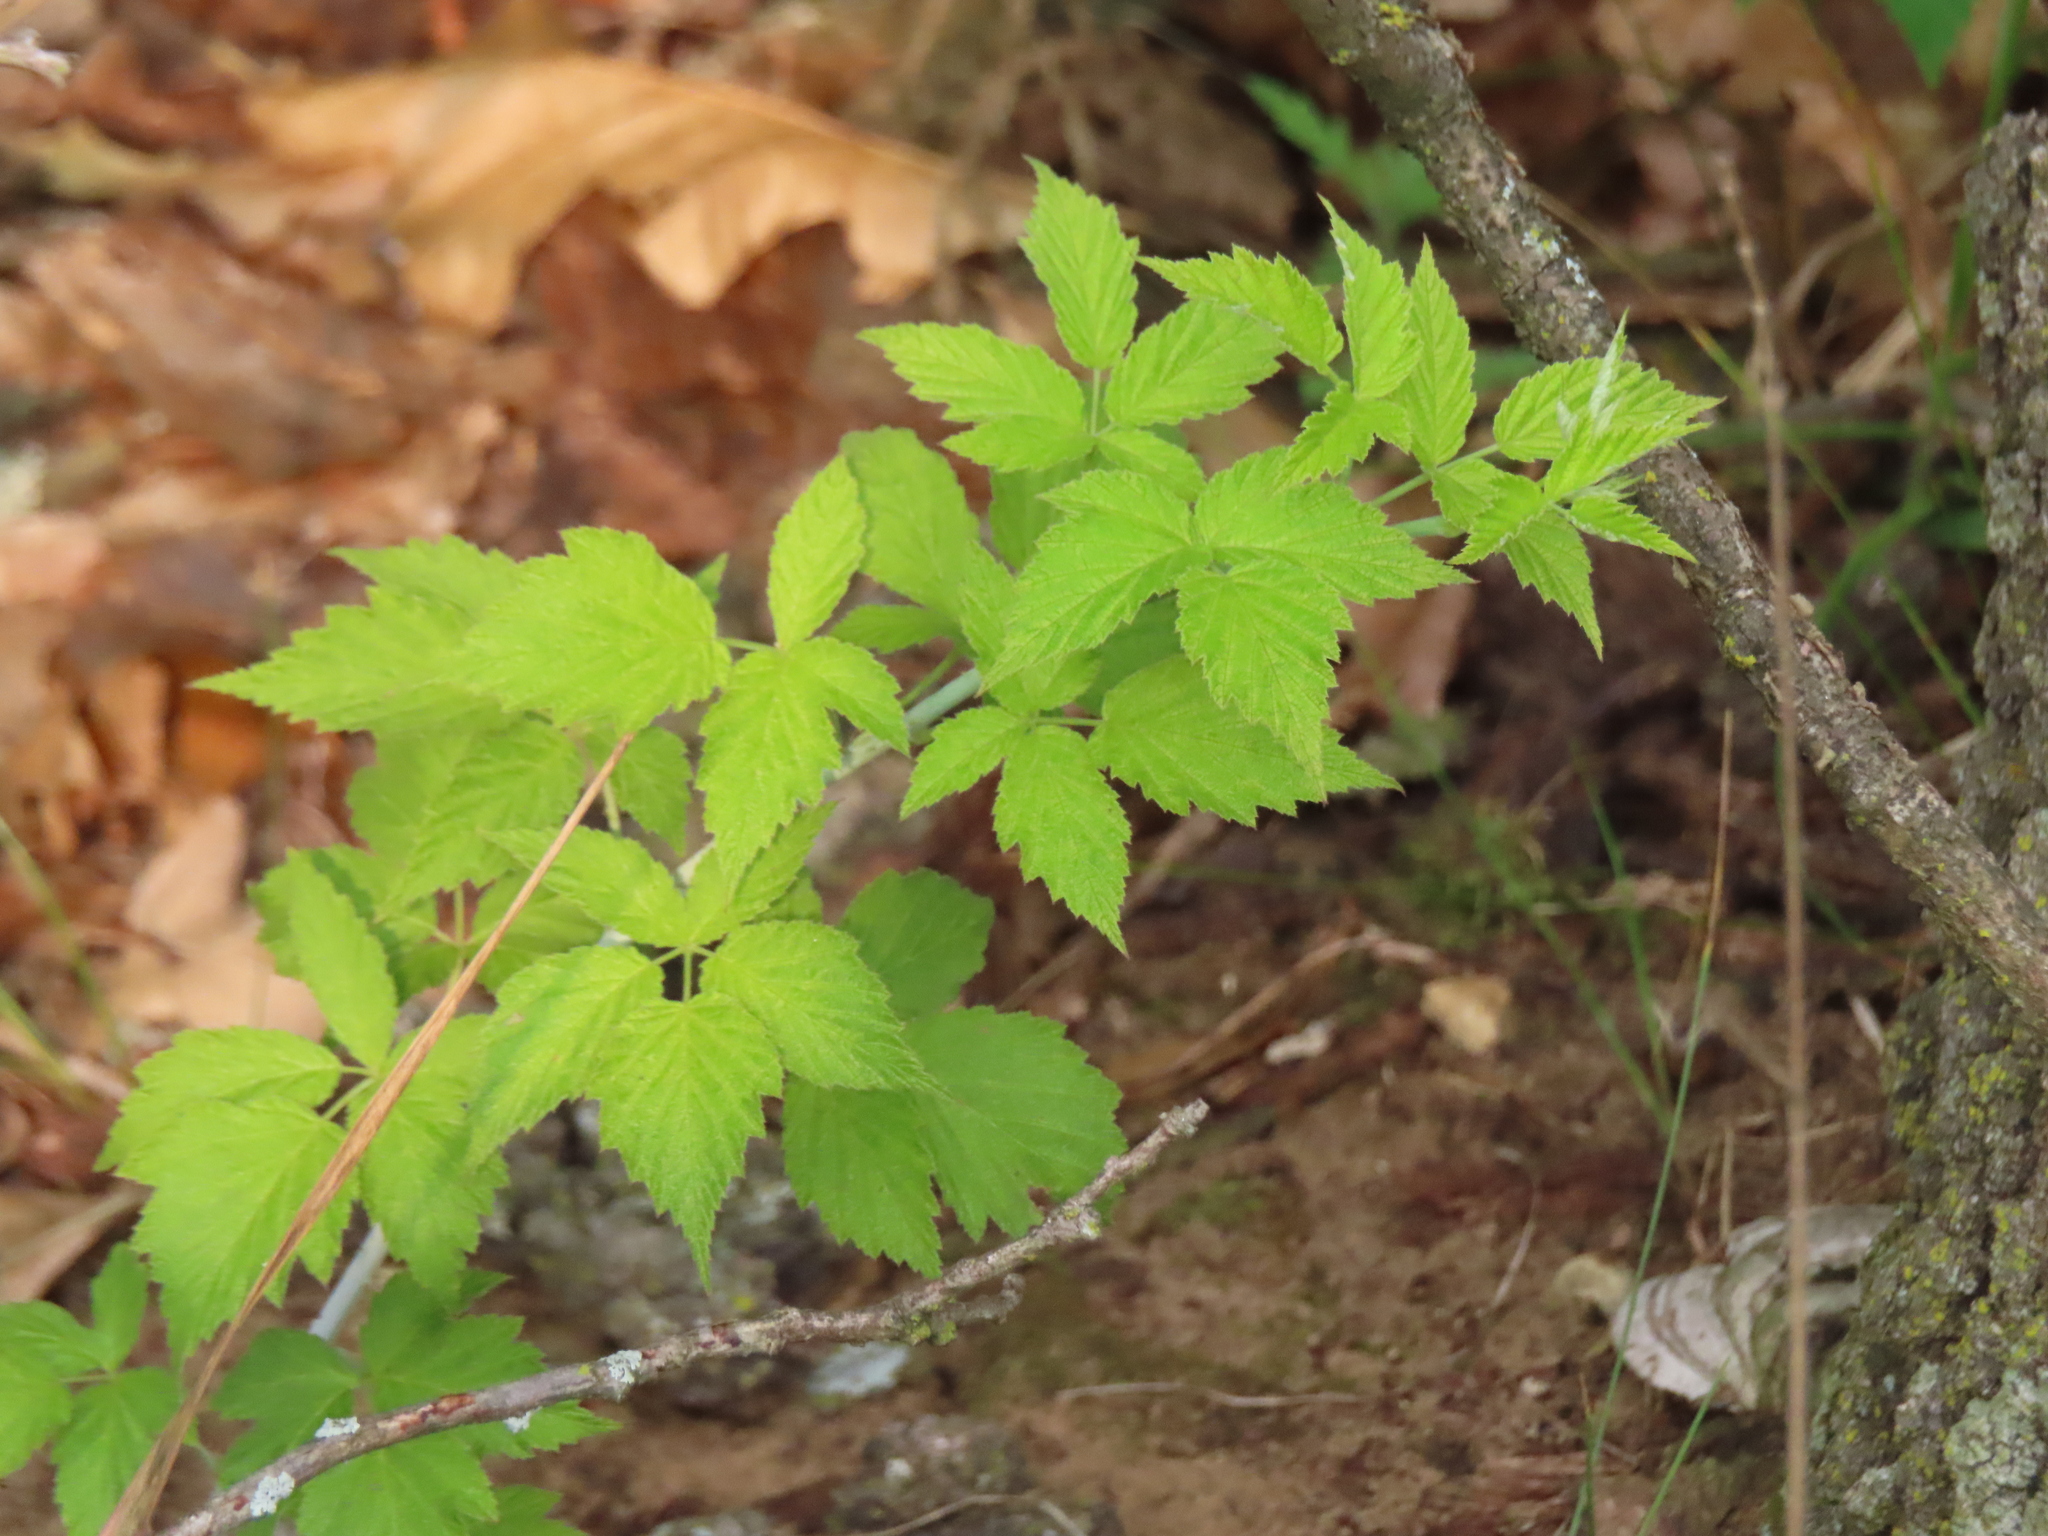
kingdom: Plantae
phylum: Tracheophyta
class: Magnoliopsida
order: Rosales
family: Rosaceae
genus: Rubus
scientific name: Rubus occidentalis
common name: Black raspberry
